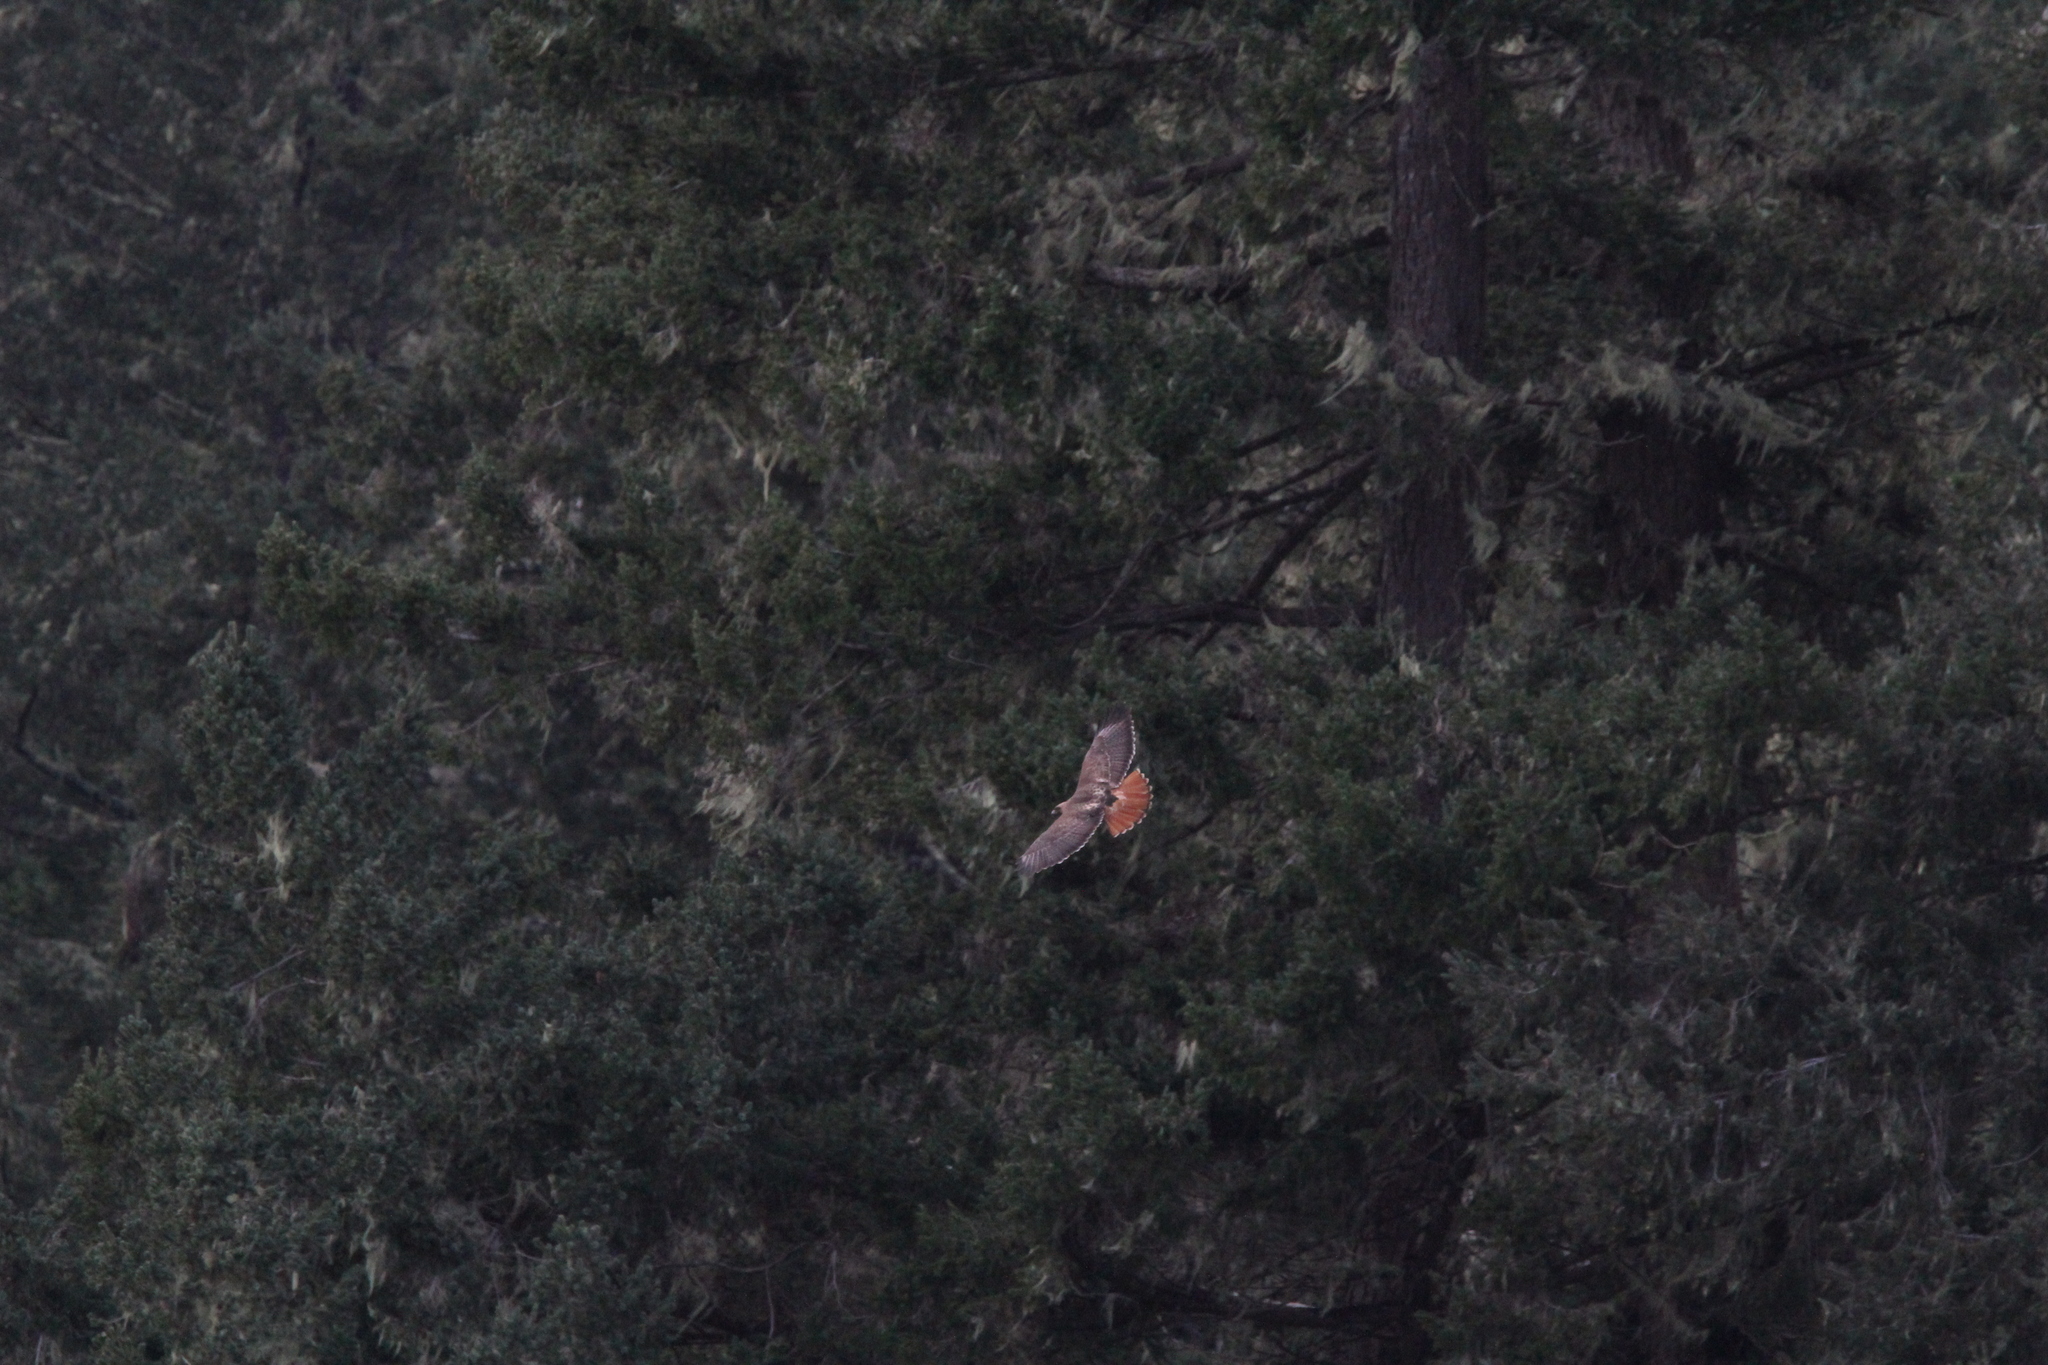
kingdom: Animalia
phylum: Chordata
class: Aves
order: Accipitriformes
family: Accipitridae
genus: Buteo
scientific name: Buteo jamaicensis
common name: Red-tailed hawk
